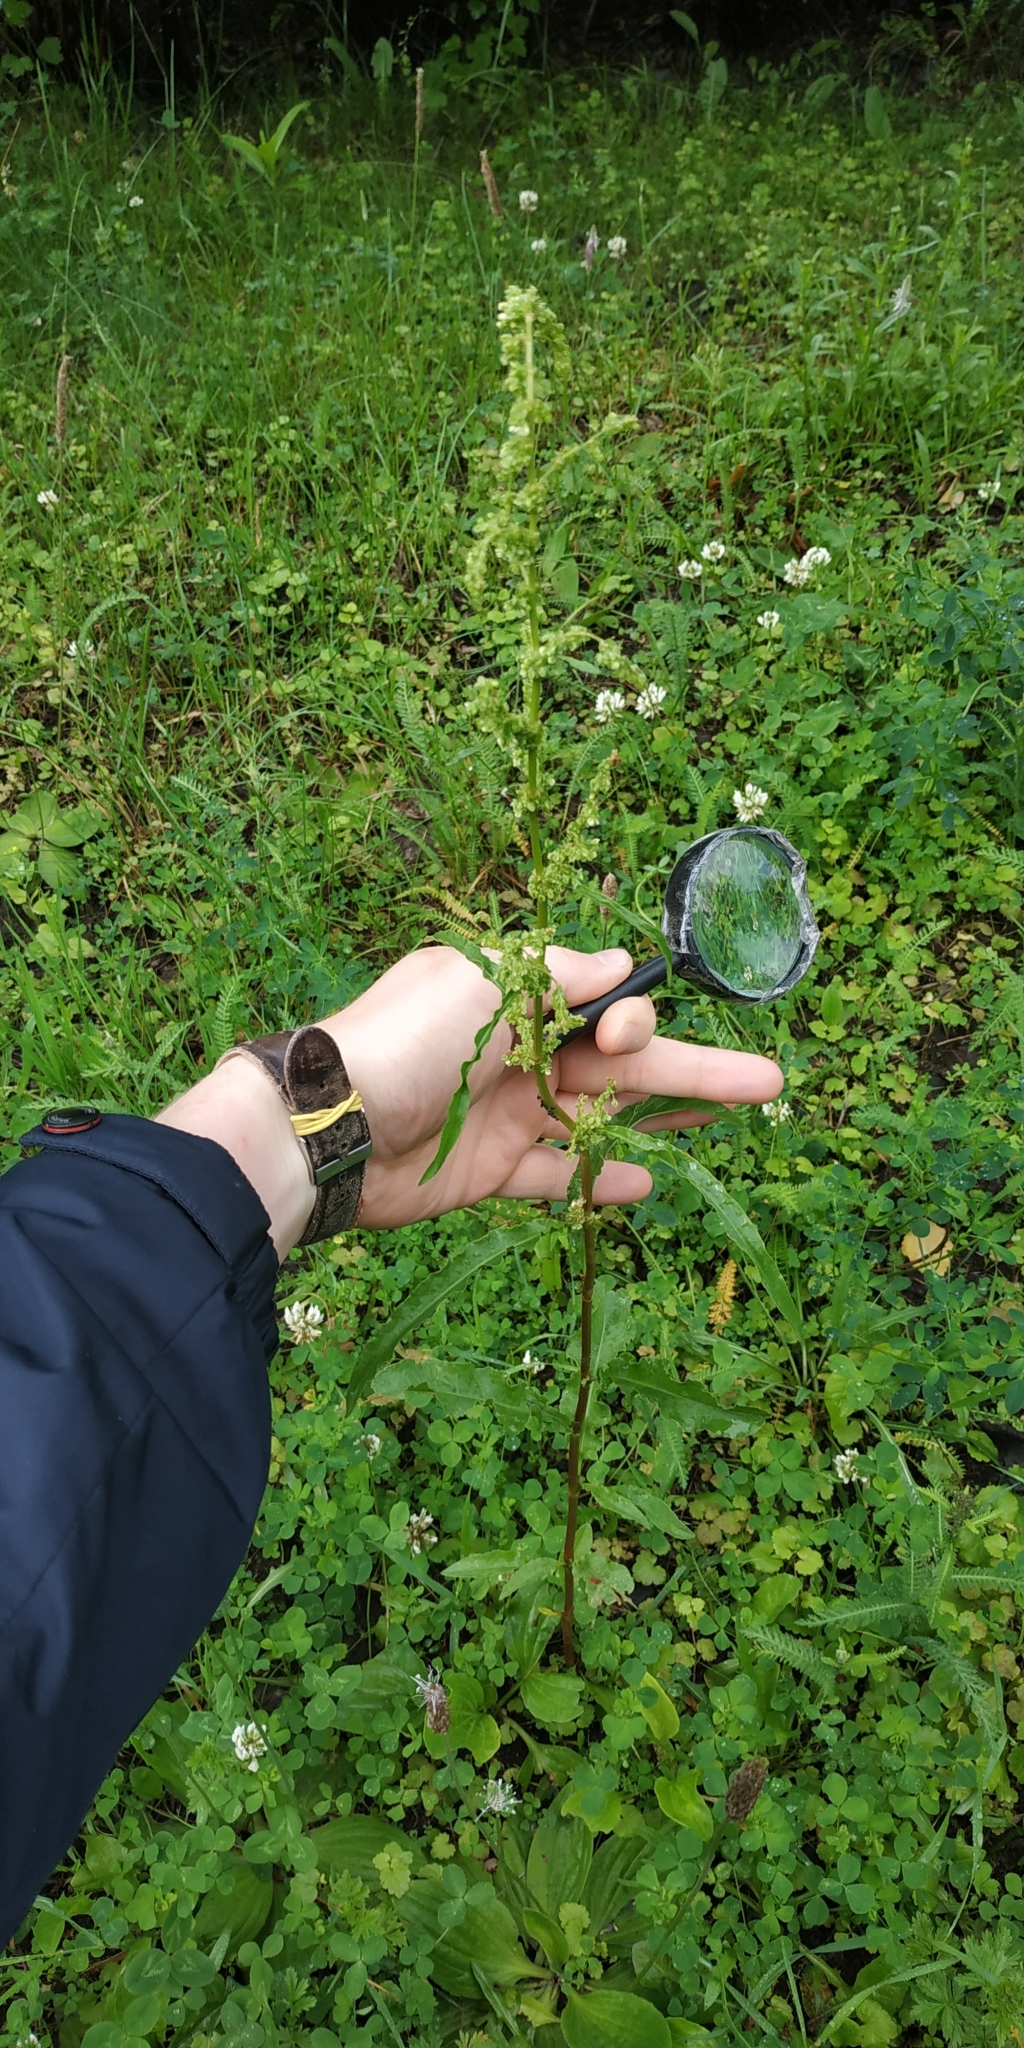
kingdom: Plantae
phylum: Tracheophyta
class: Magnoliopsida
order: Caryophyllales
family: Polygonaceae
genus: Rumex
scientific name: Rumex pseudonatronatus
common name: Field dock
